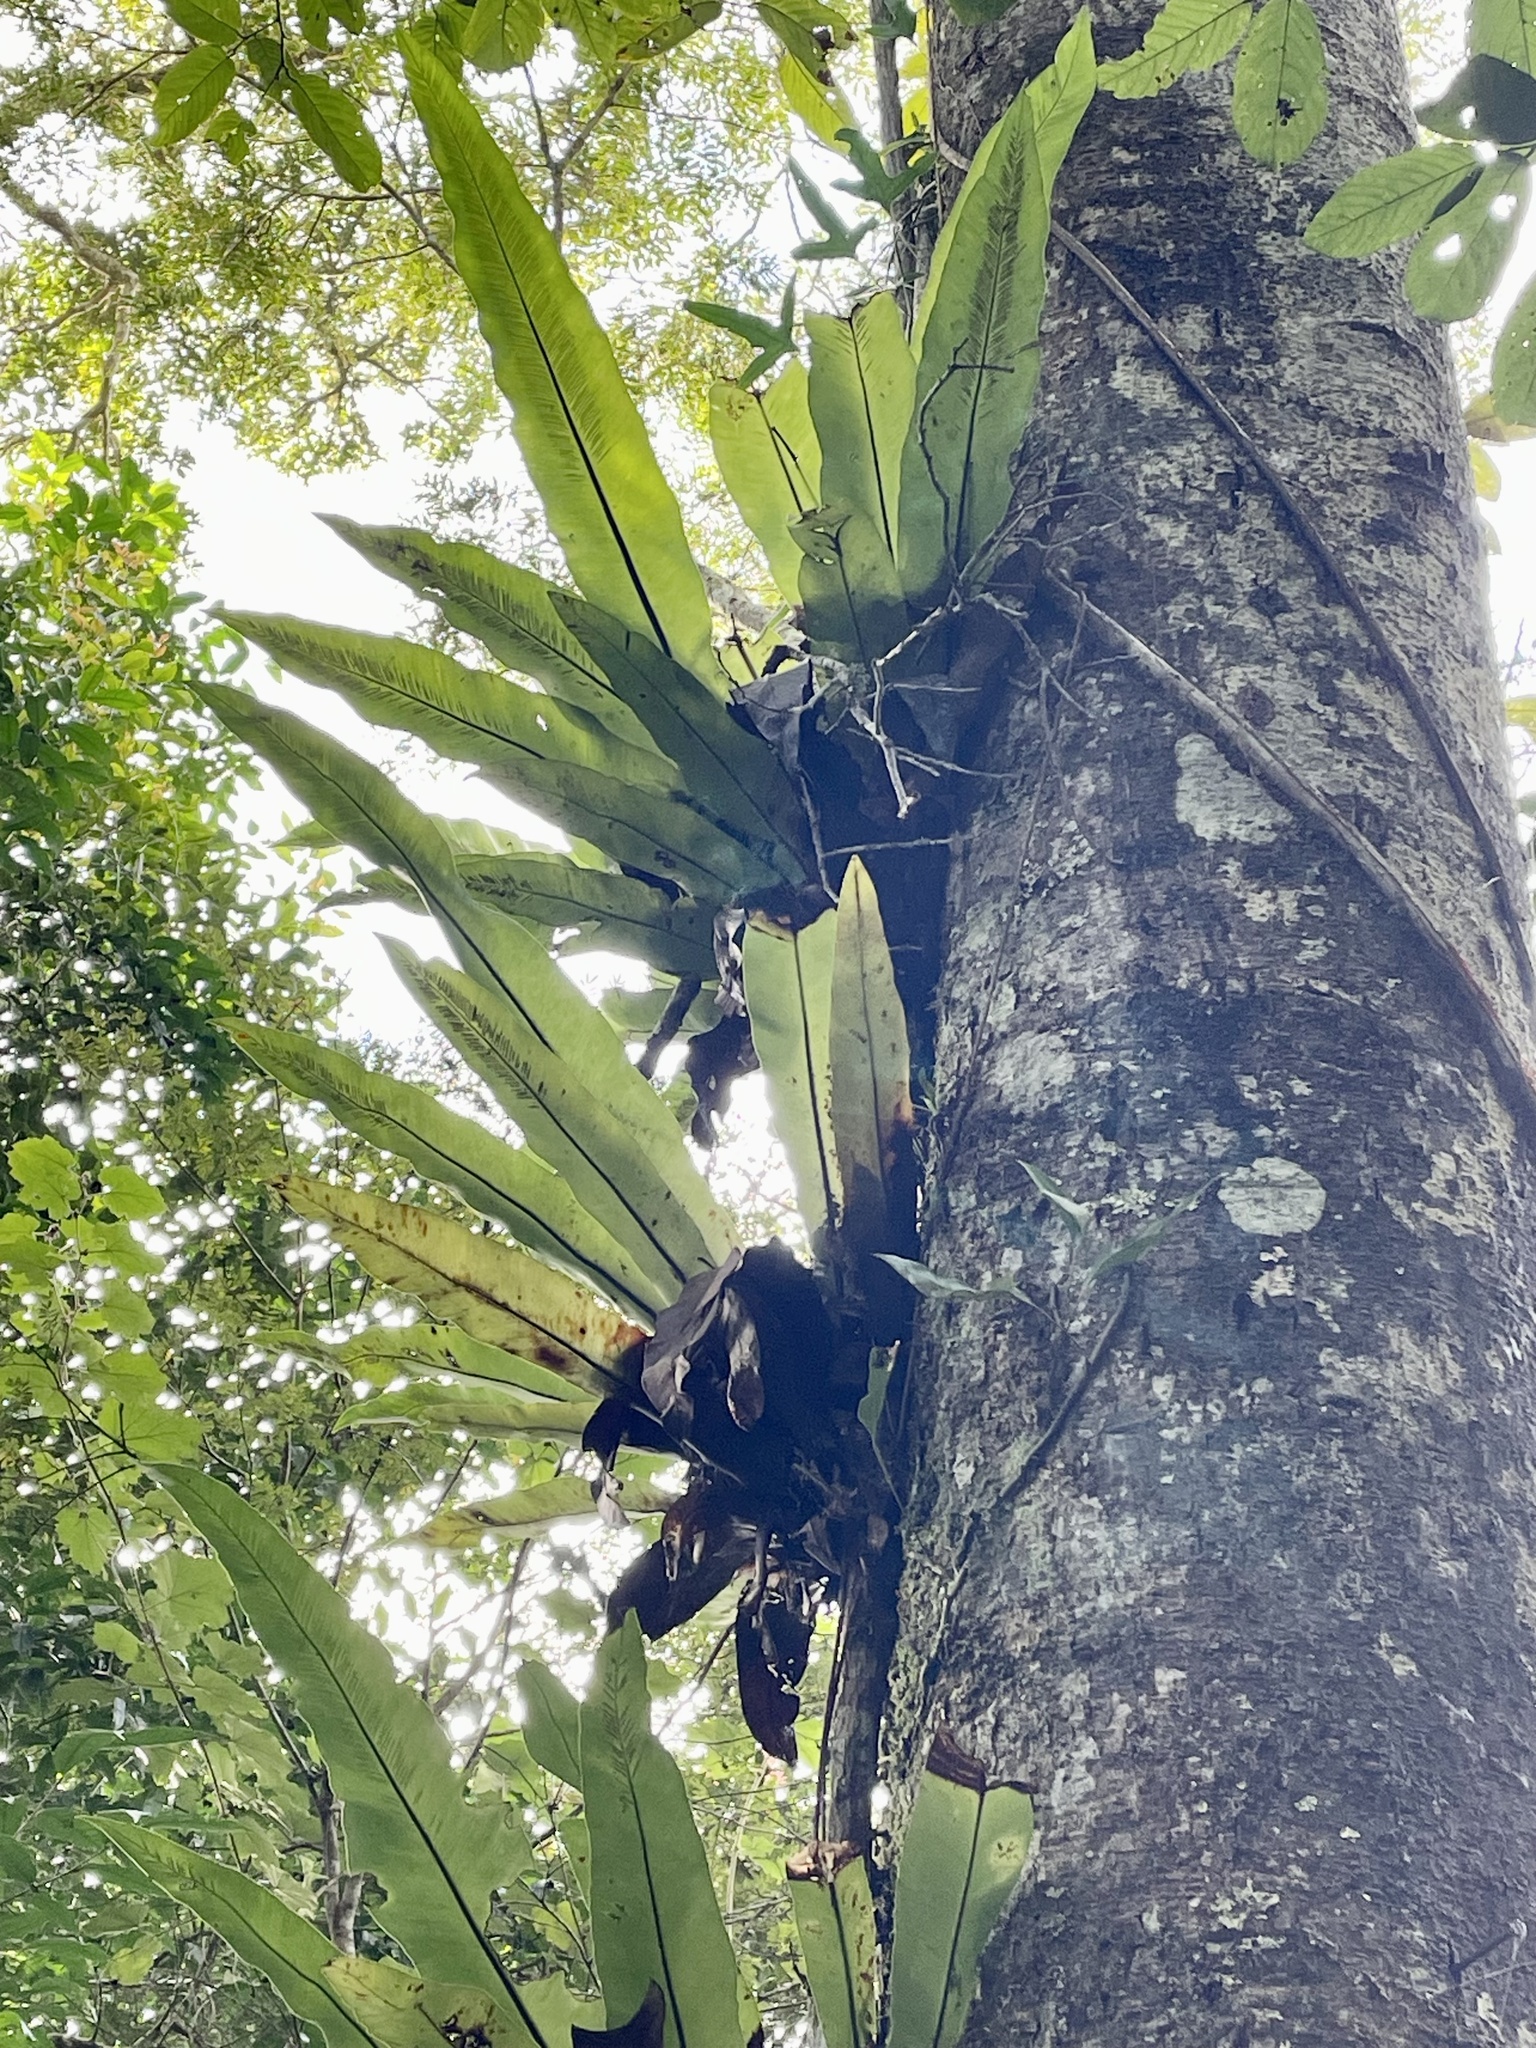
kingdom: Plantae
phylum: Tracheophyta
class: Polypodiopsida
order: Polypodiales
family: Aspleniaceae
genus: Asplenium
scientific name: Asplenium mauritianum
